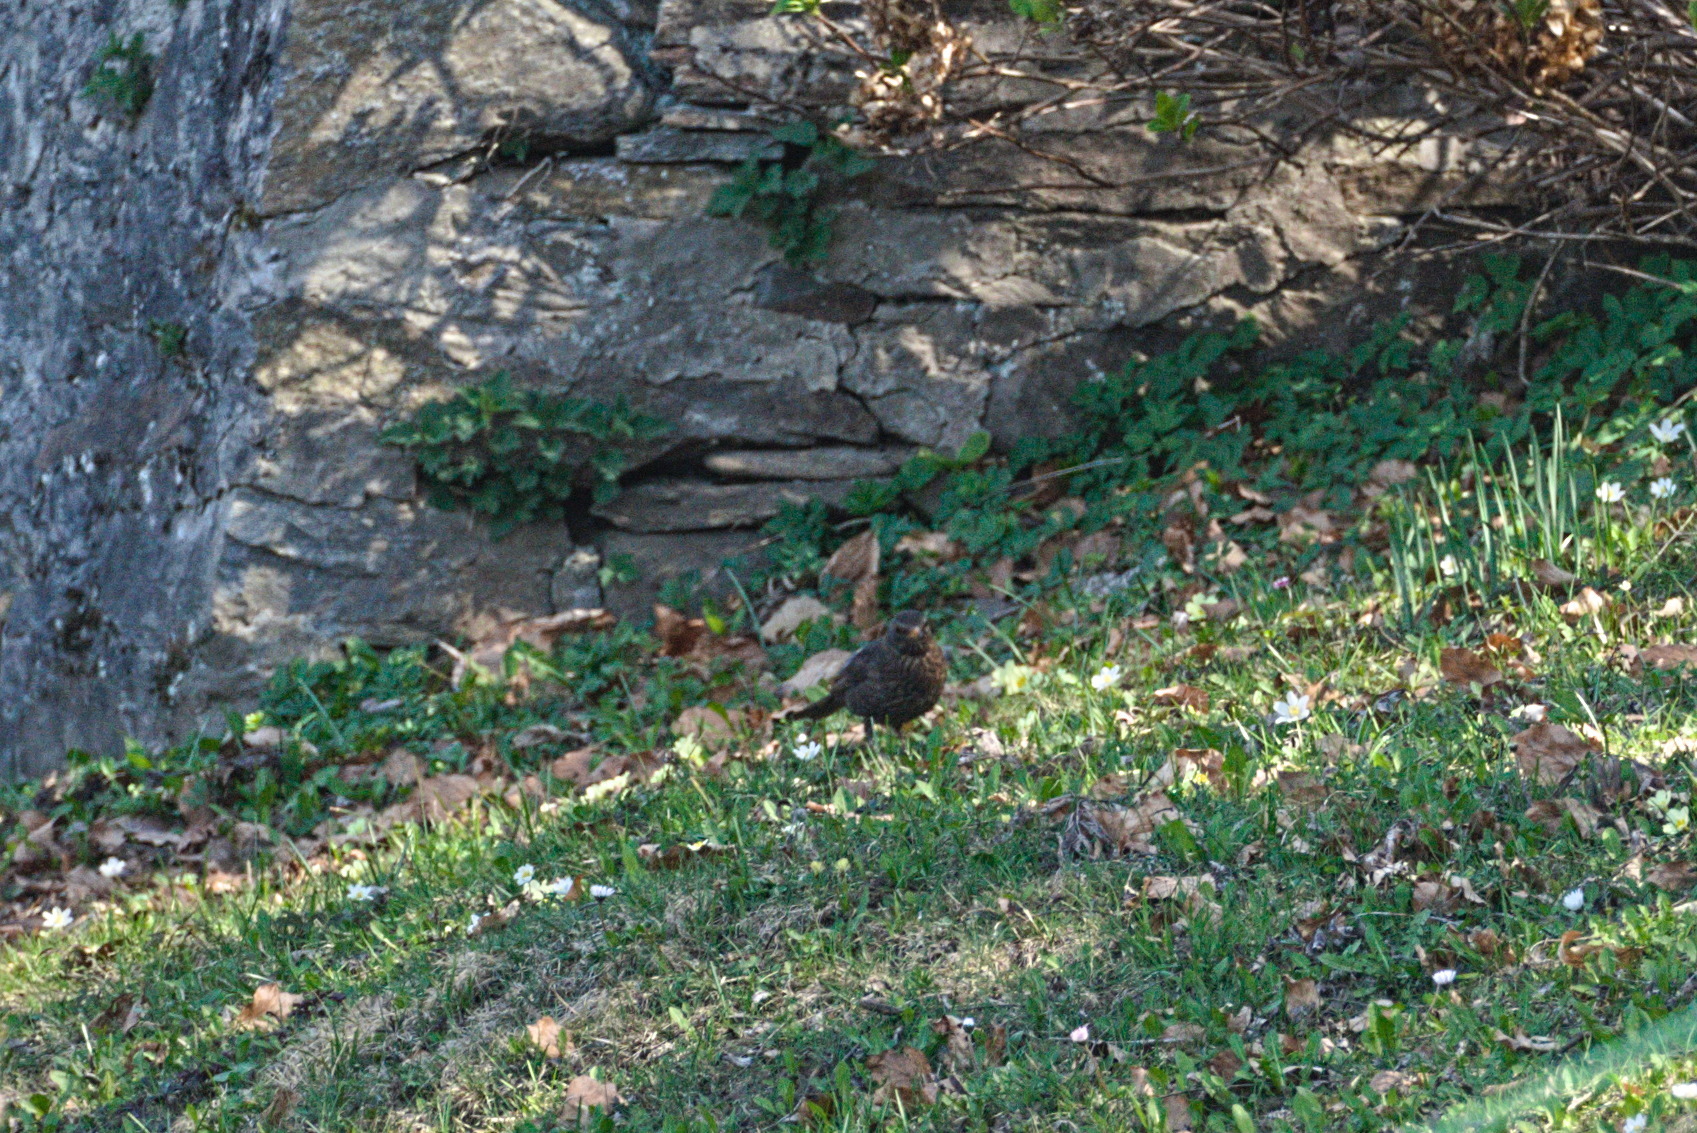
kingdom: Animalia
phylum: Chordata
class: Aves
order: Passeriformes
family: Turdidae
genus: Turdus
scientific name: Turdus merula
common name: Common blackbird
